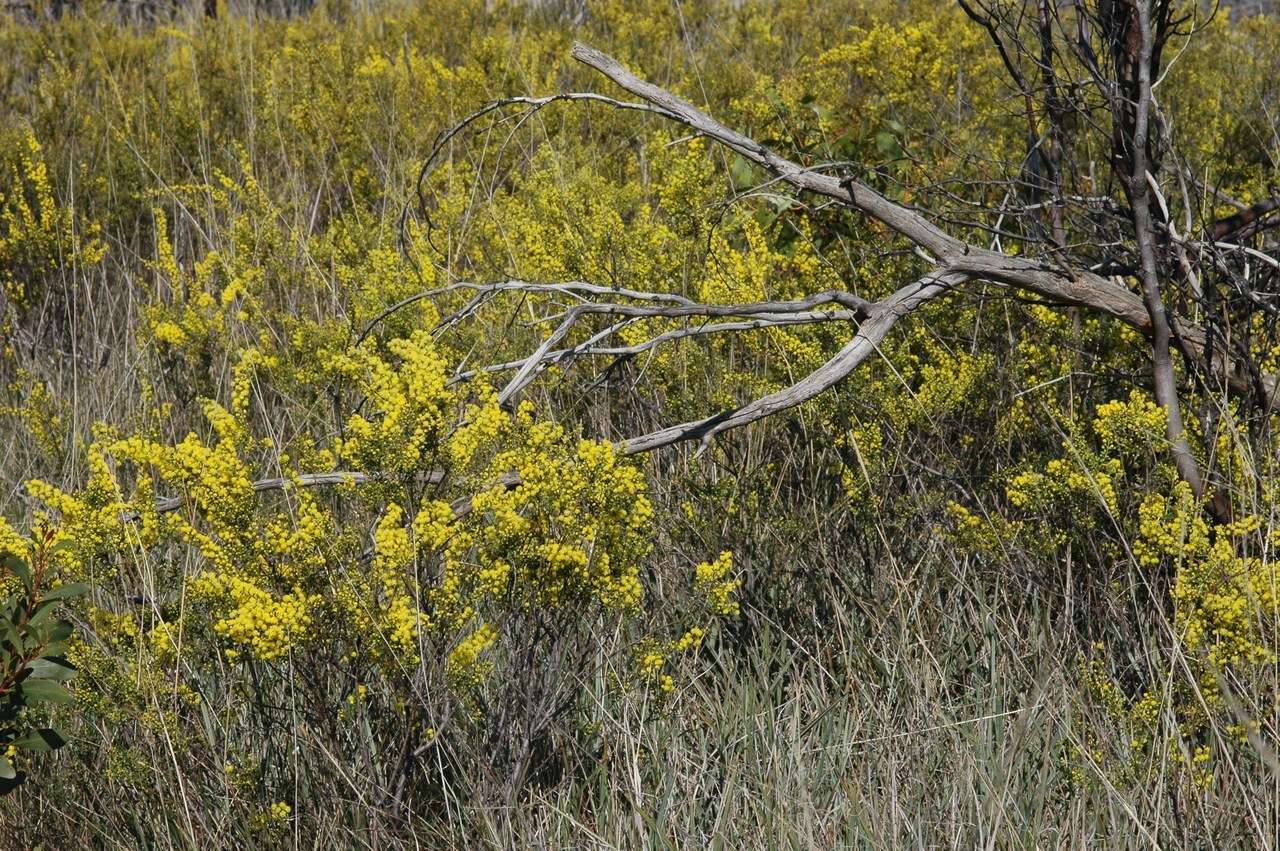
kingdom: Plantae
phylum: Tracheophyta
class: Magnoliopsida
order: Fabales
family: Fabaceae
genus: Acacia
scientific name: Acacia acinacea
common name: Gold-dust acacia
